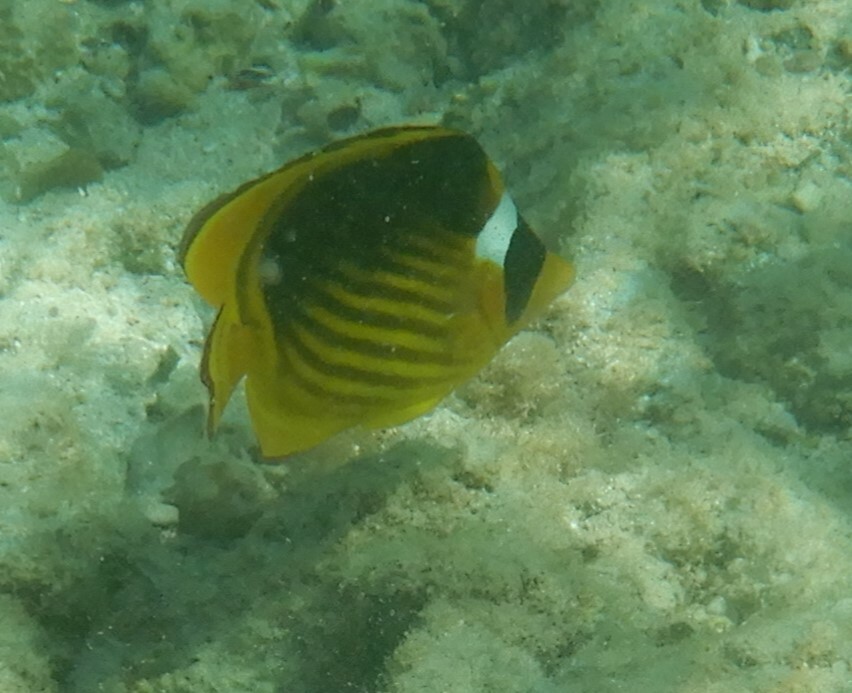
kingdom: Animalia
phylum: Chordata
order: Perciformes
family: Chaetodontidae
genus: Chaetodon
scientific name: Chaetodon fasciatus
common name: Diagonal butterflyfish
